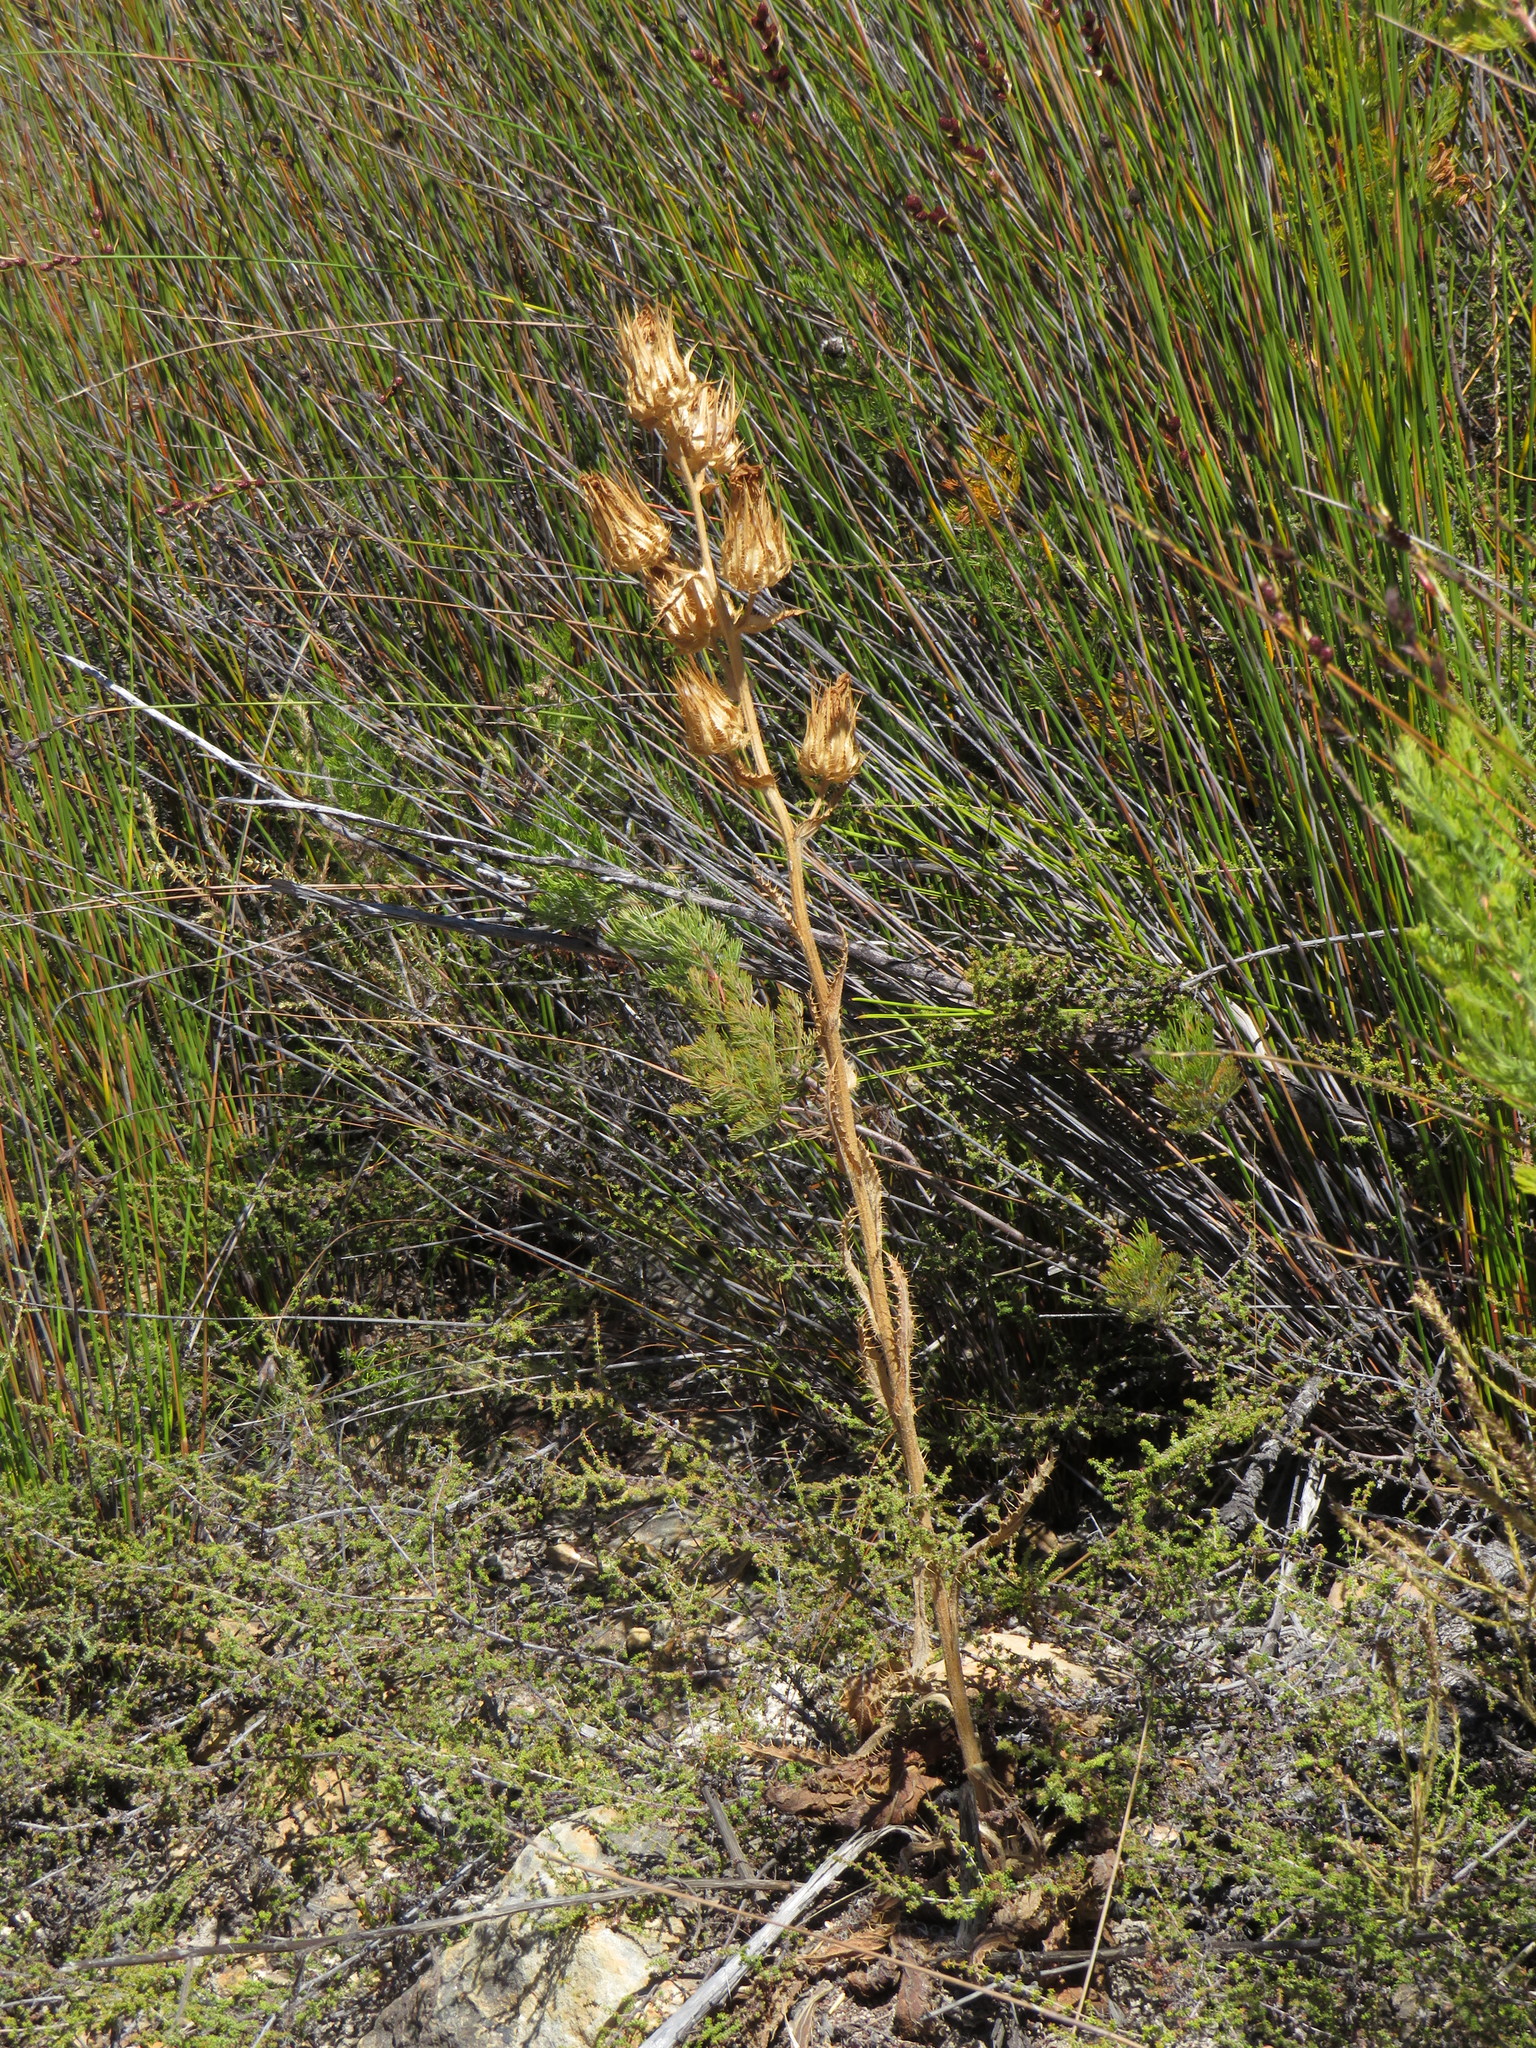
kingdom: Plantae
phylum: Tracheophyta
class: Magnoliopsida
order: Asterales
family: Asteraceae
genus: Berkheya
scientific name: Berkheya armata
